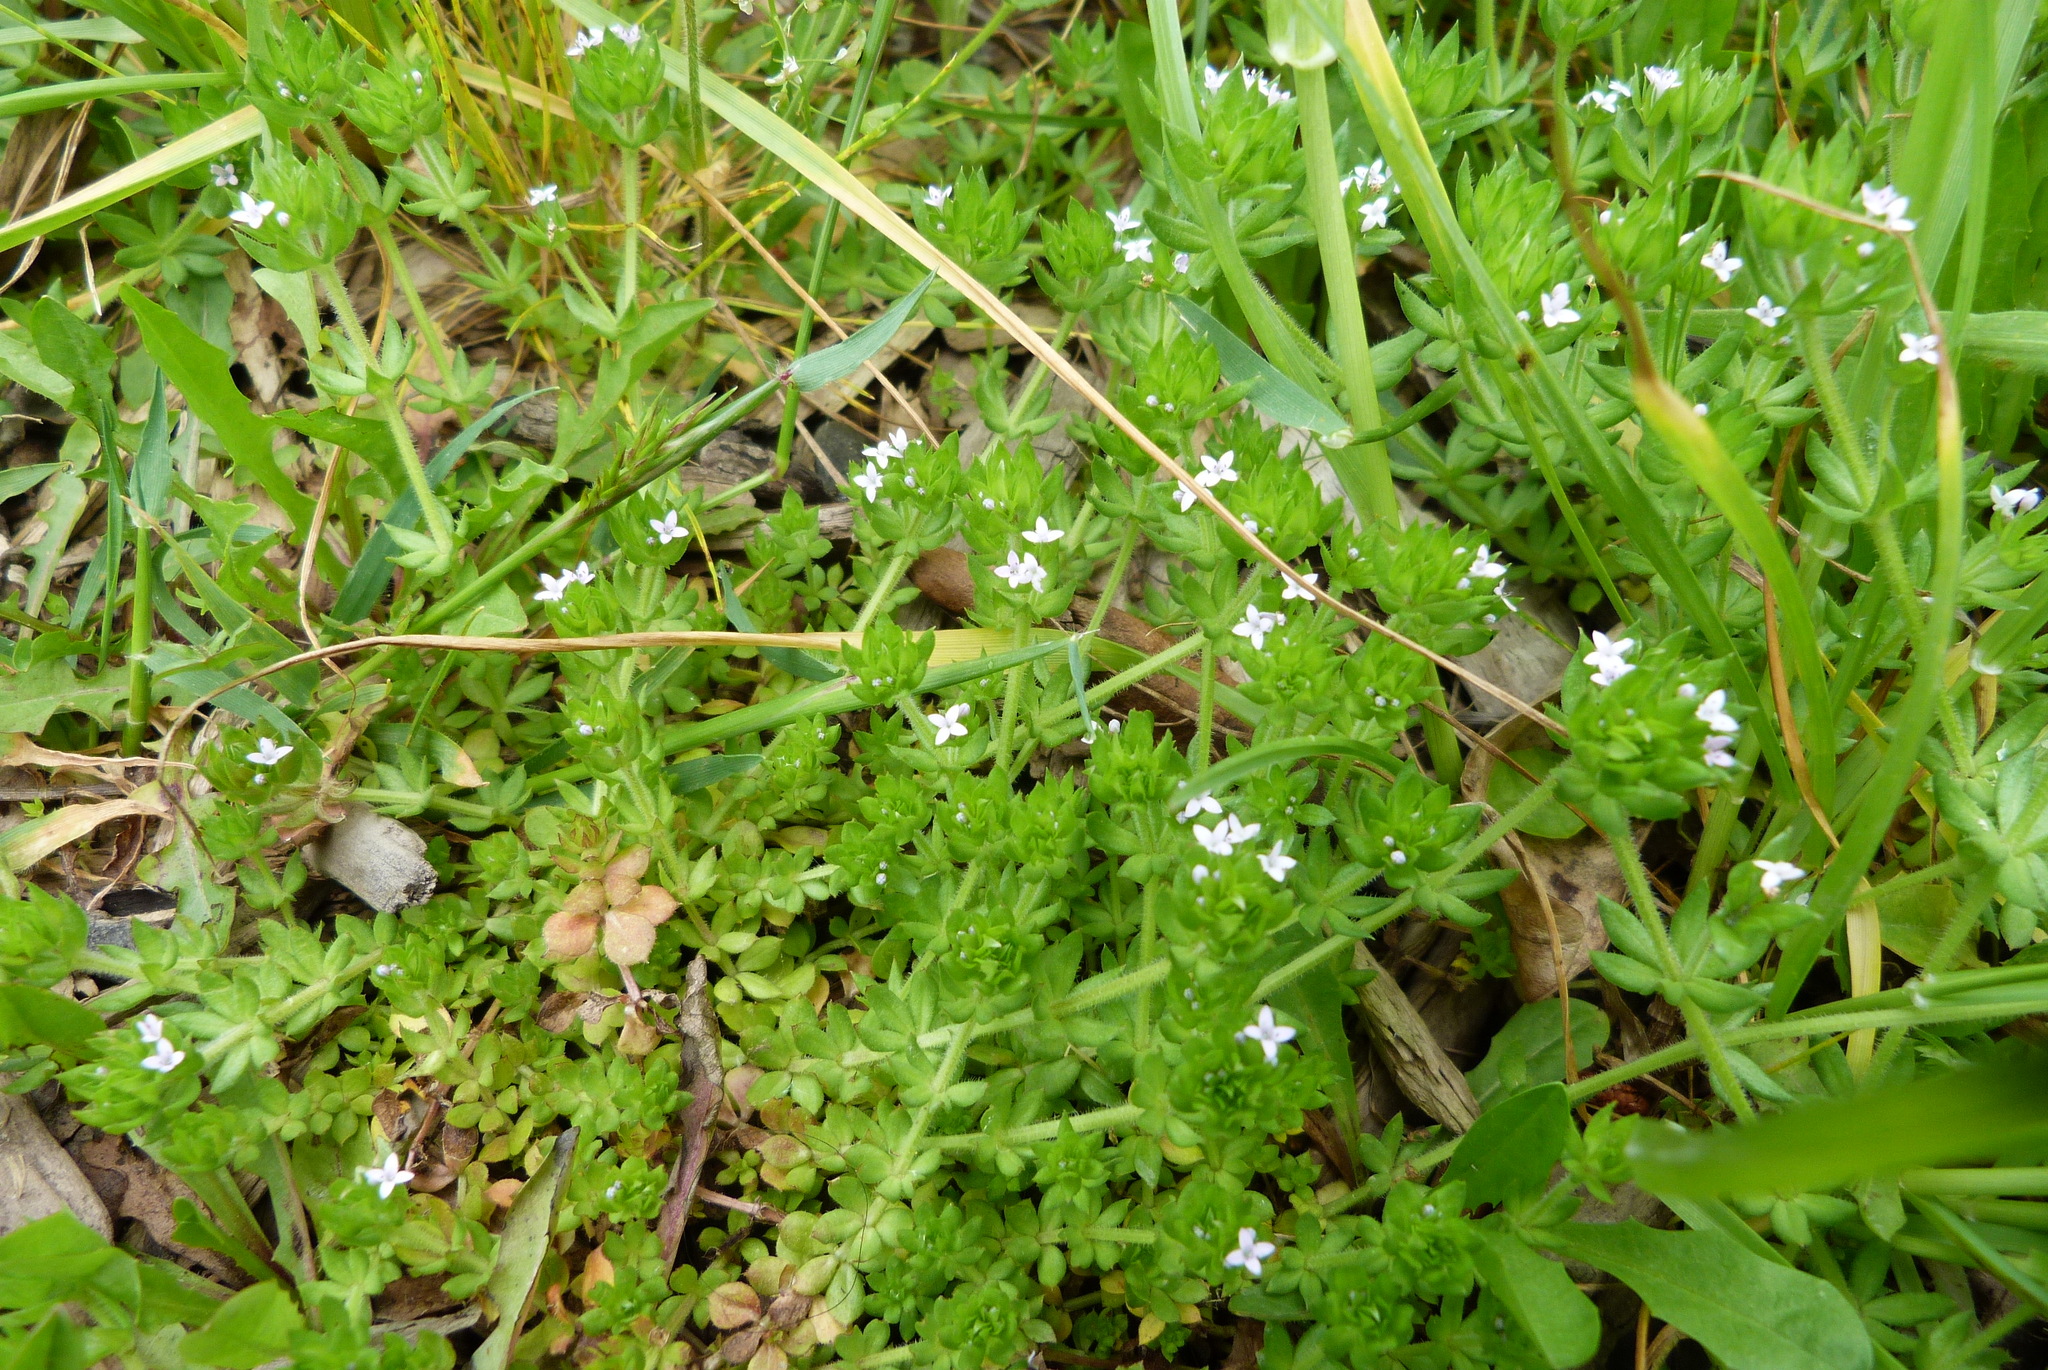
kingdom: Plantae
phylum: Tracheophyta
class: Magnoliopsida
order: Gentianales
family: Rubiaceae
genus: Sherardia
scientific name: Sherardia arvensis
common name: Field madder
